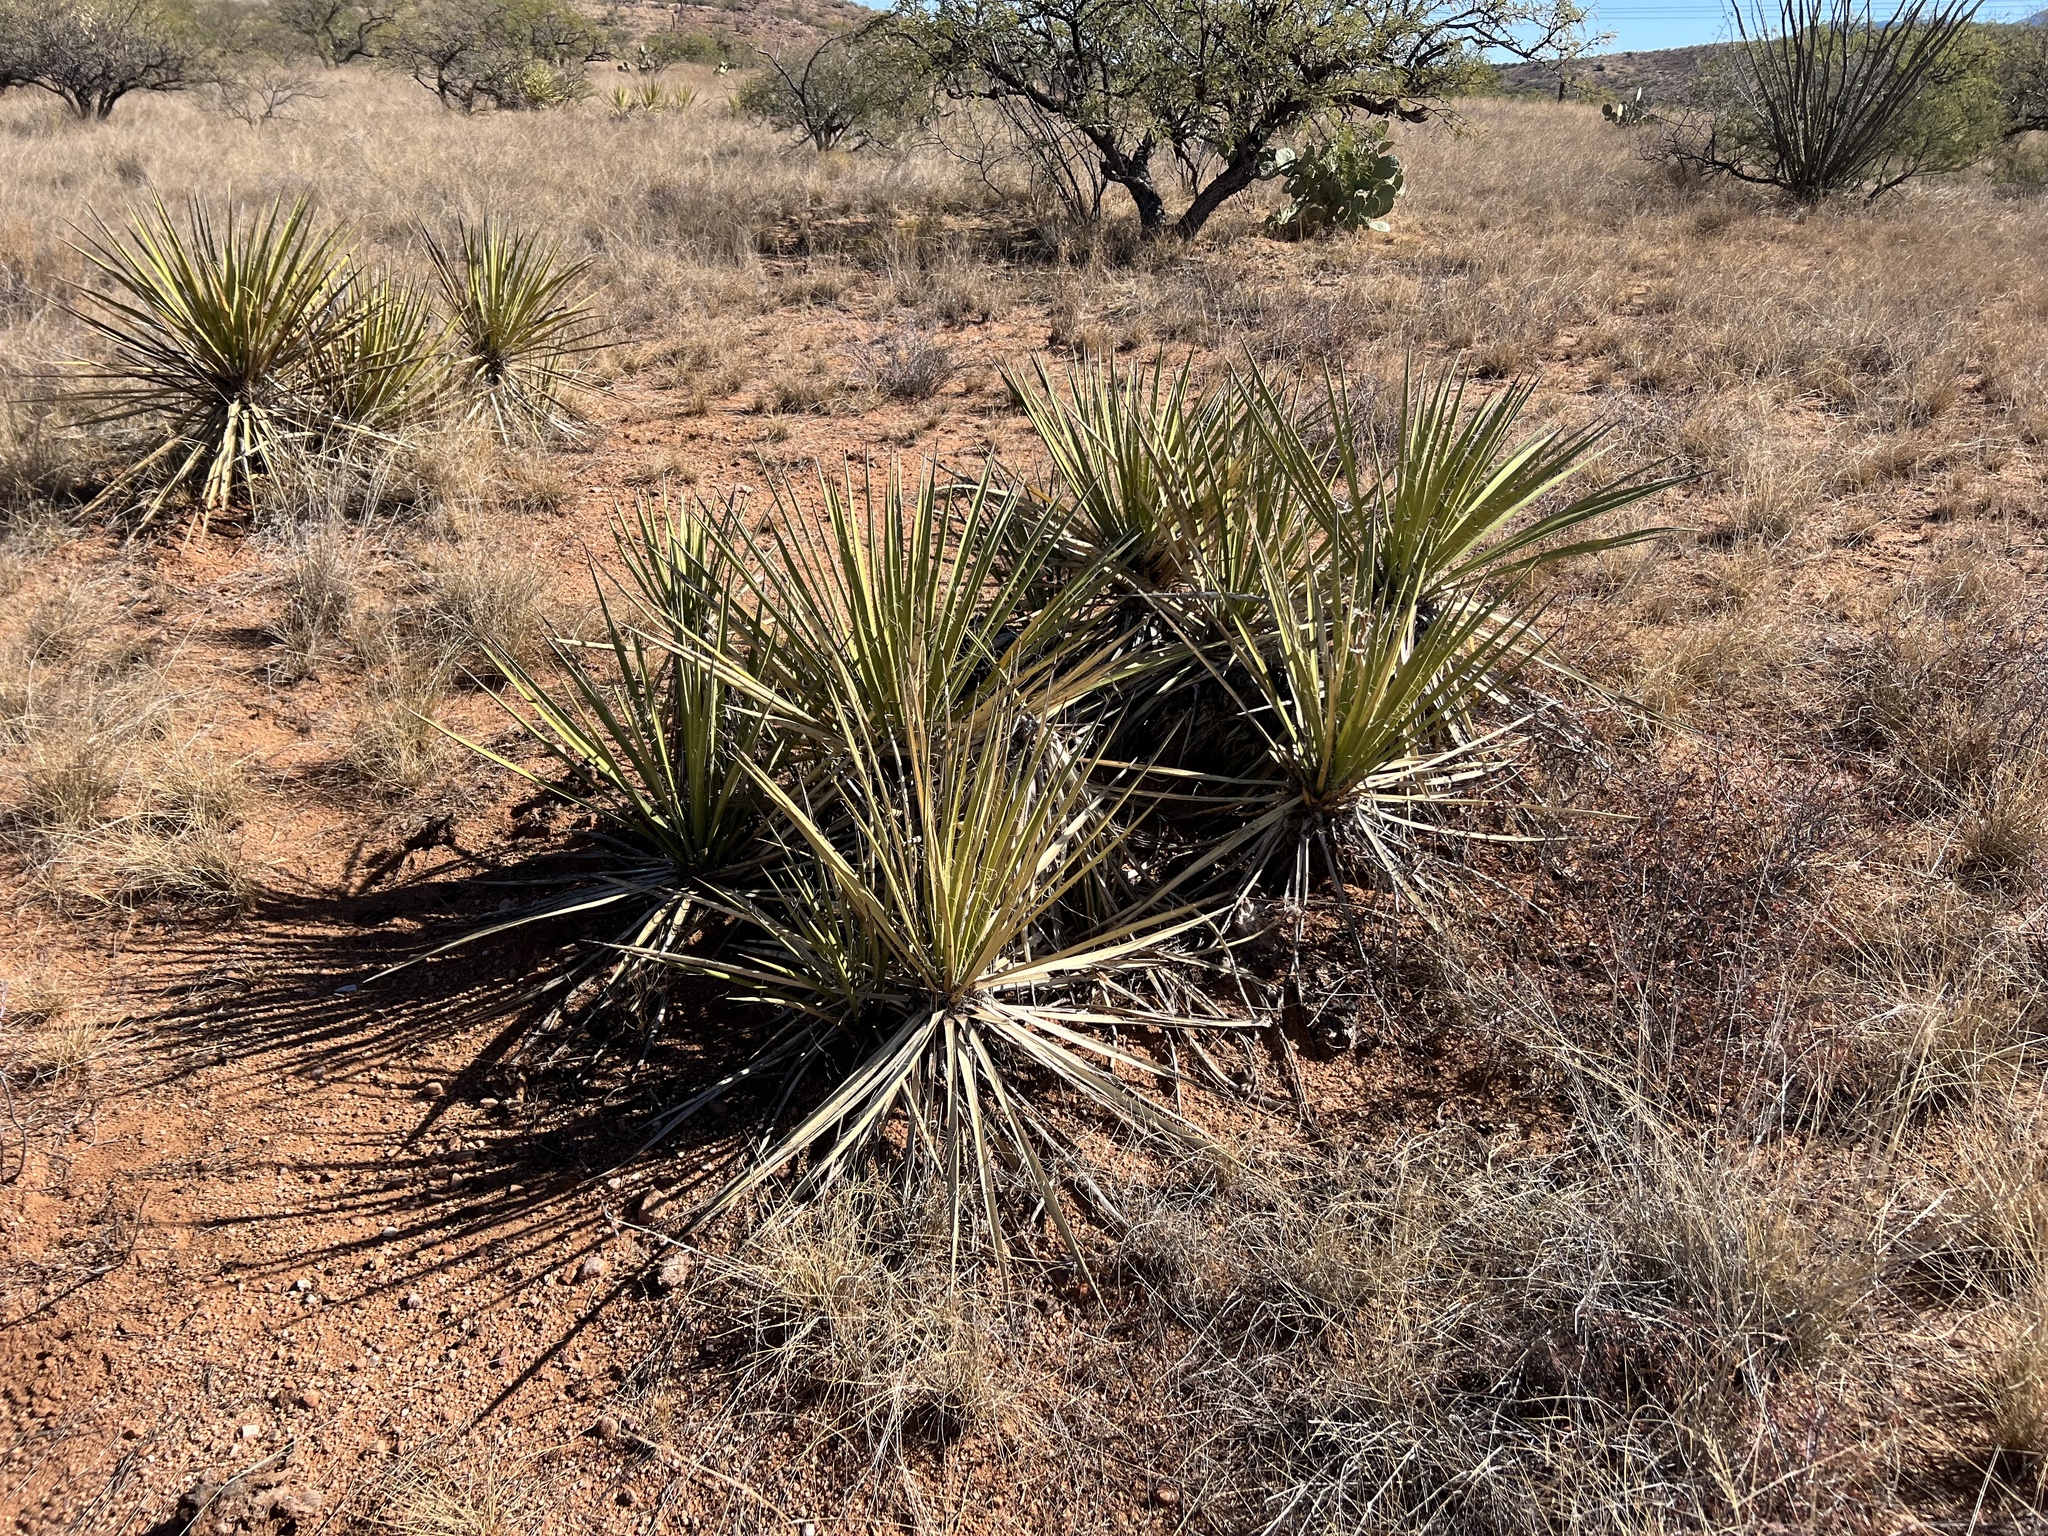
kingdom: Plantae
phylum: Tracheophyta
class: Liliopsida
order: Asparagales
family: Asparagaceae
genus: Yucca
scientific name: Yucca baccata
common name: Banana yucca
